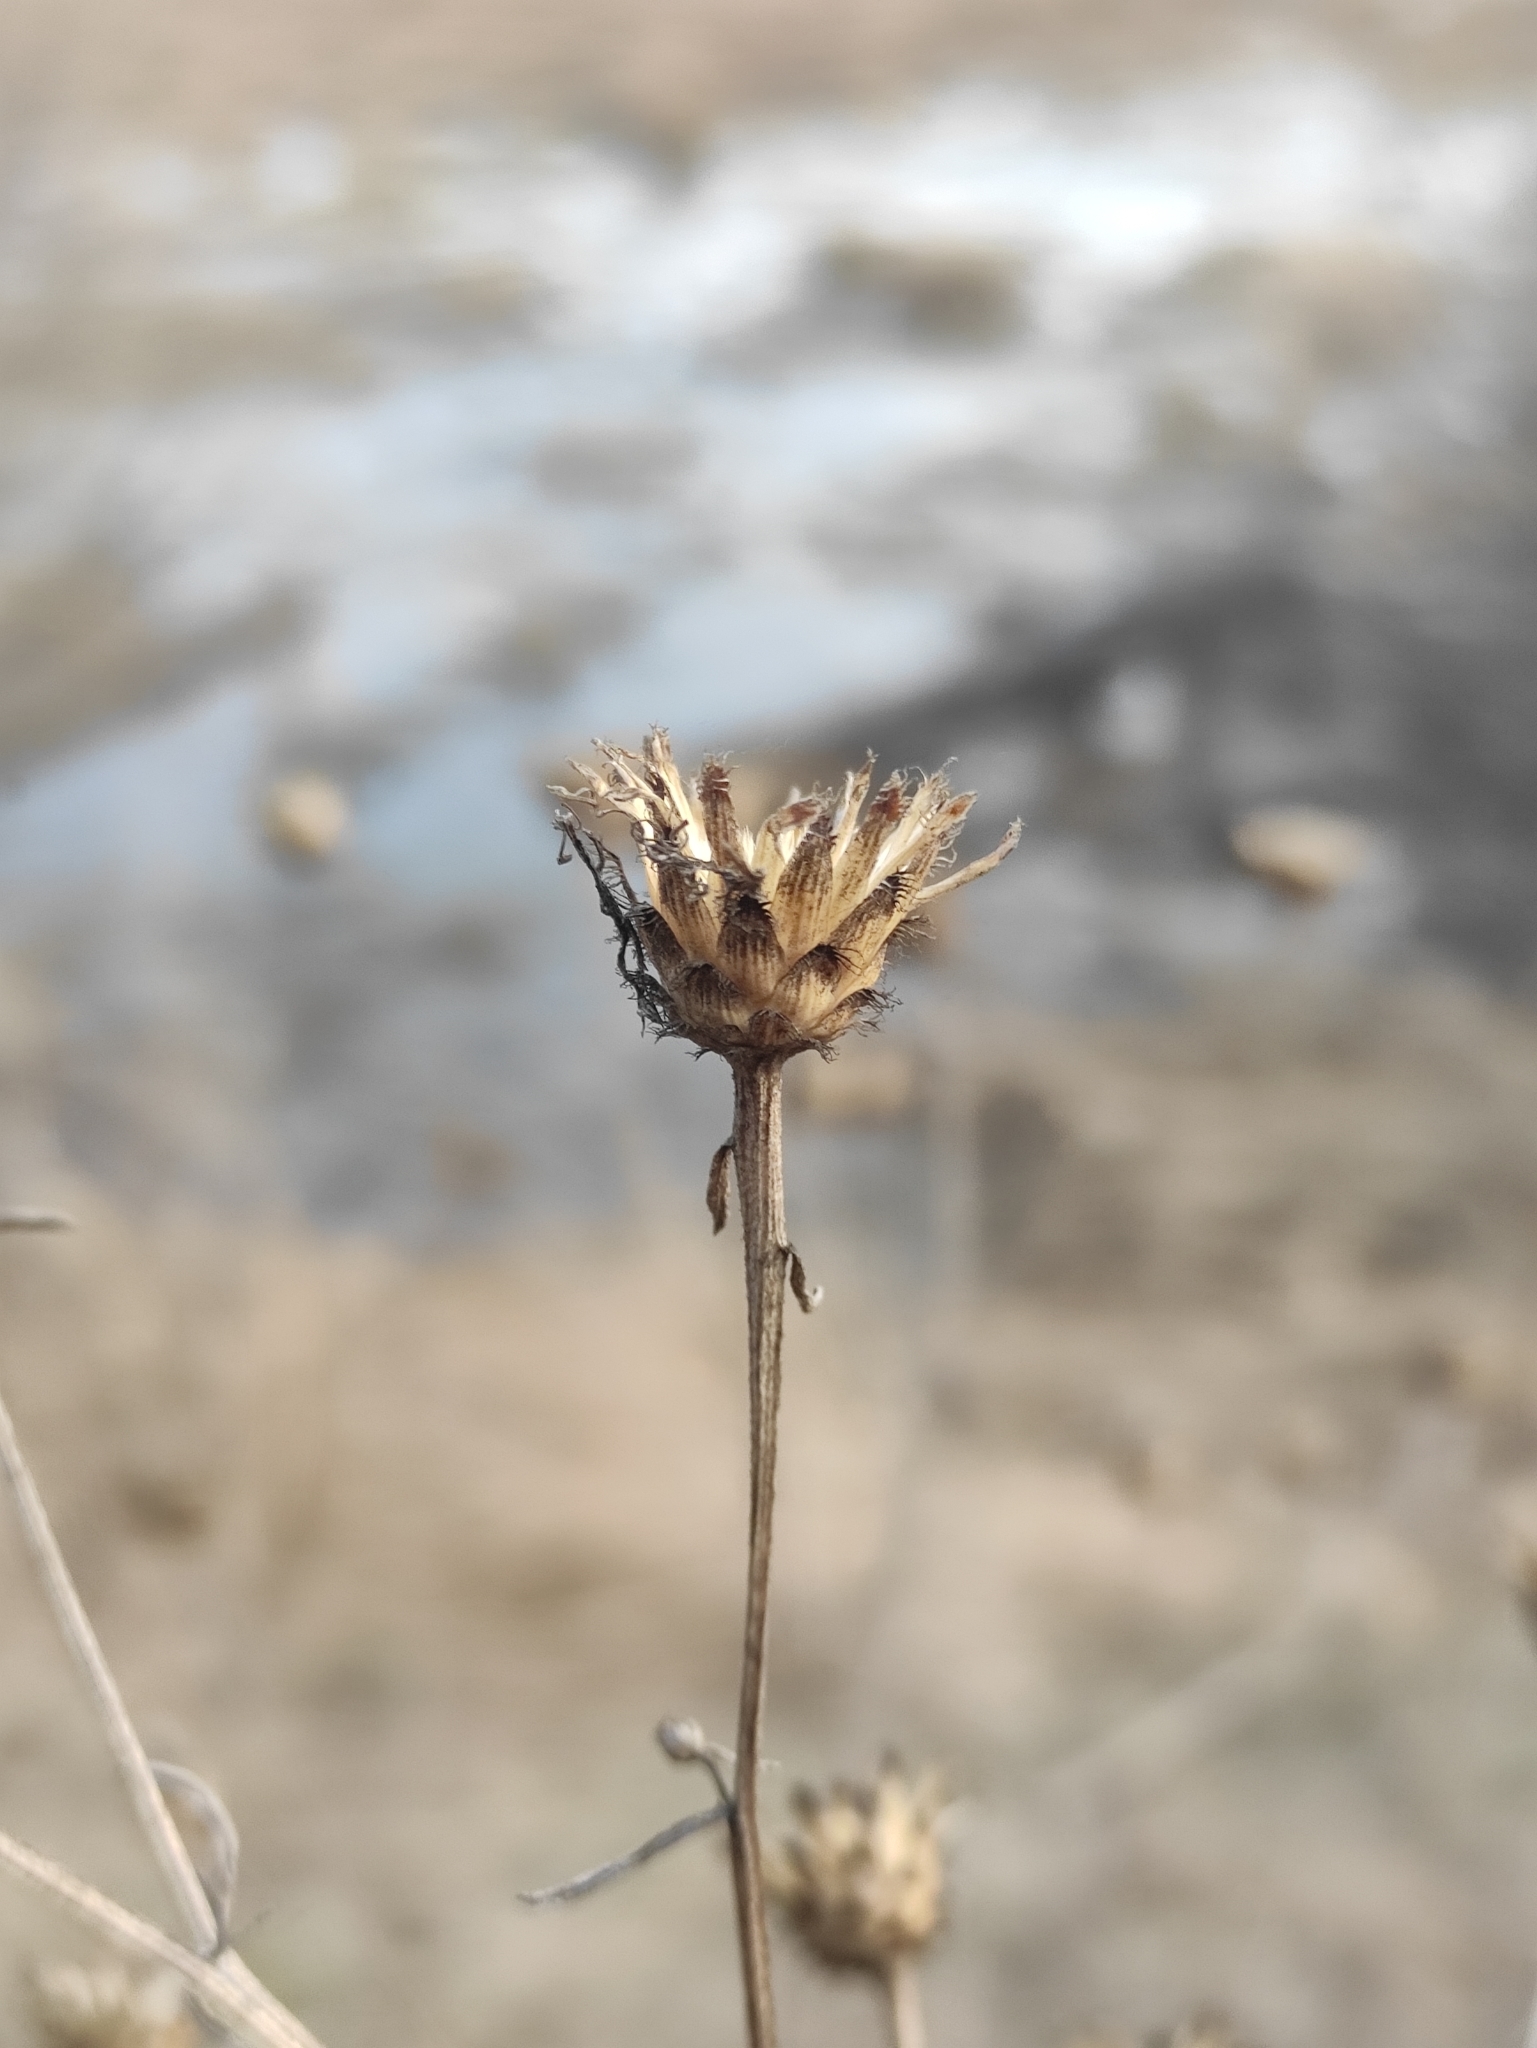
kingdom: Plantae
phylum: Tracheophyta
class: Magnoliopsida
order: Asterales
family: Asteraceae
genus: Centaurea
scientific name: Centaurea scabiosa
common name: Greater knapweed
